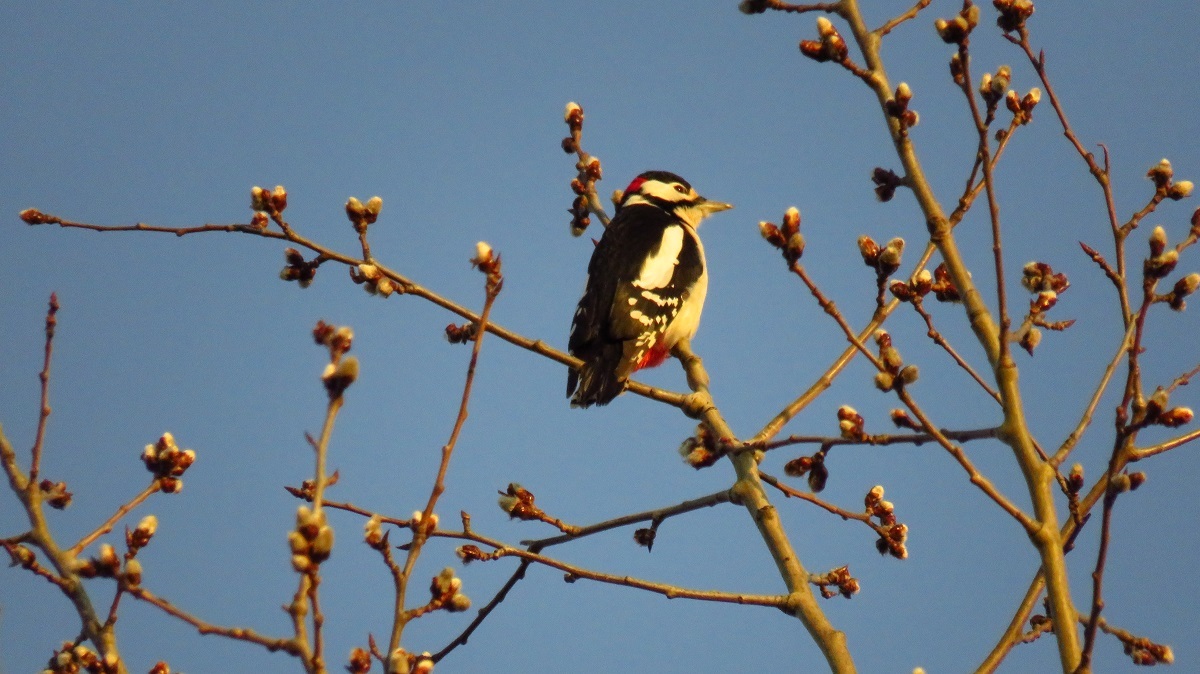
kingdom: Animalia
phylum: Chordata
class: Aves
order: Piciformes
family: Picidae
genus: Dendrocopos
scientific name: Dendrocopos major
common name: Great spotted woodpecker
